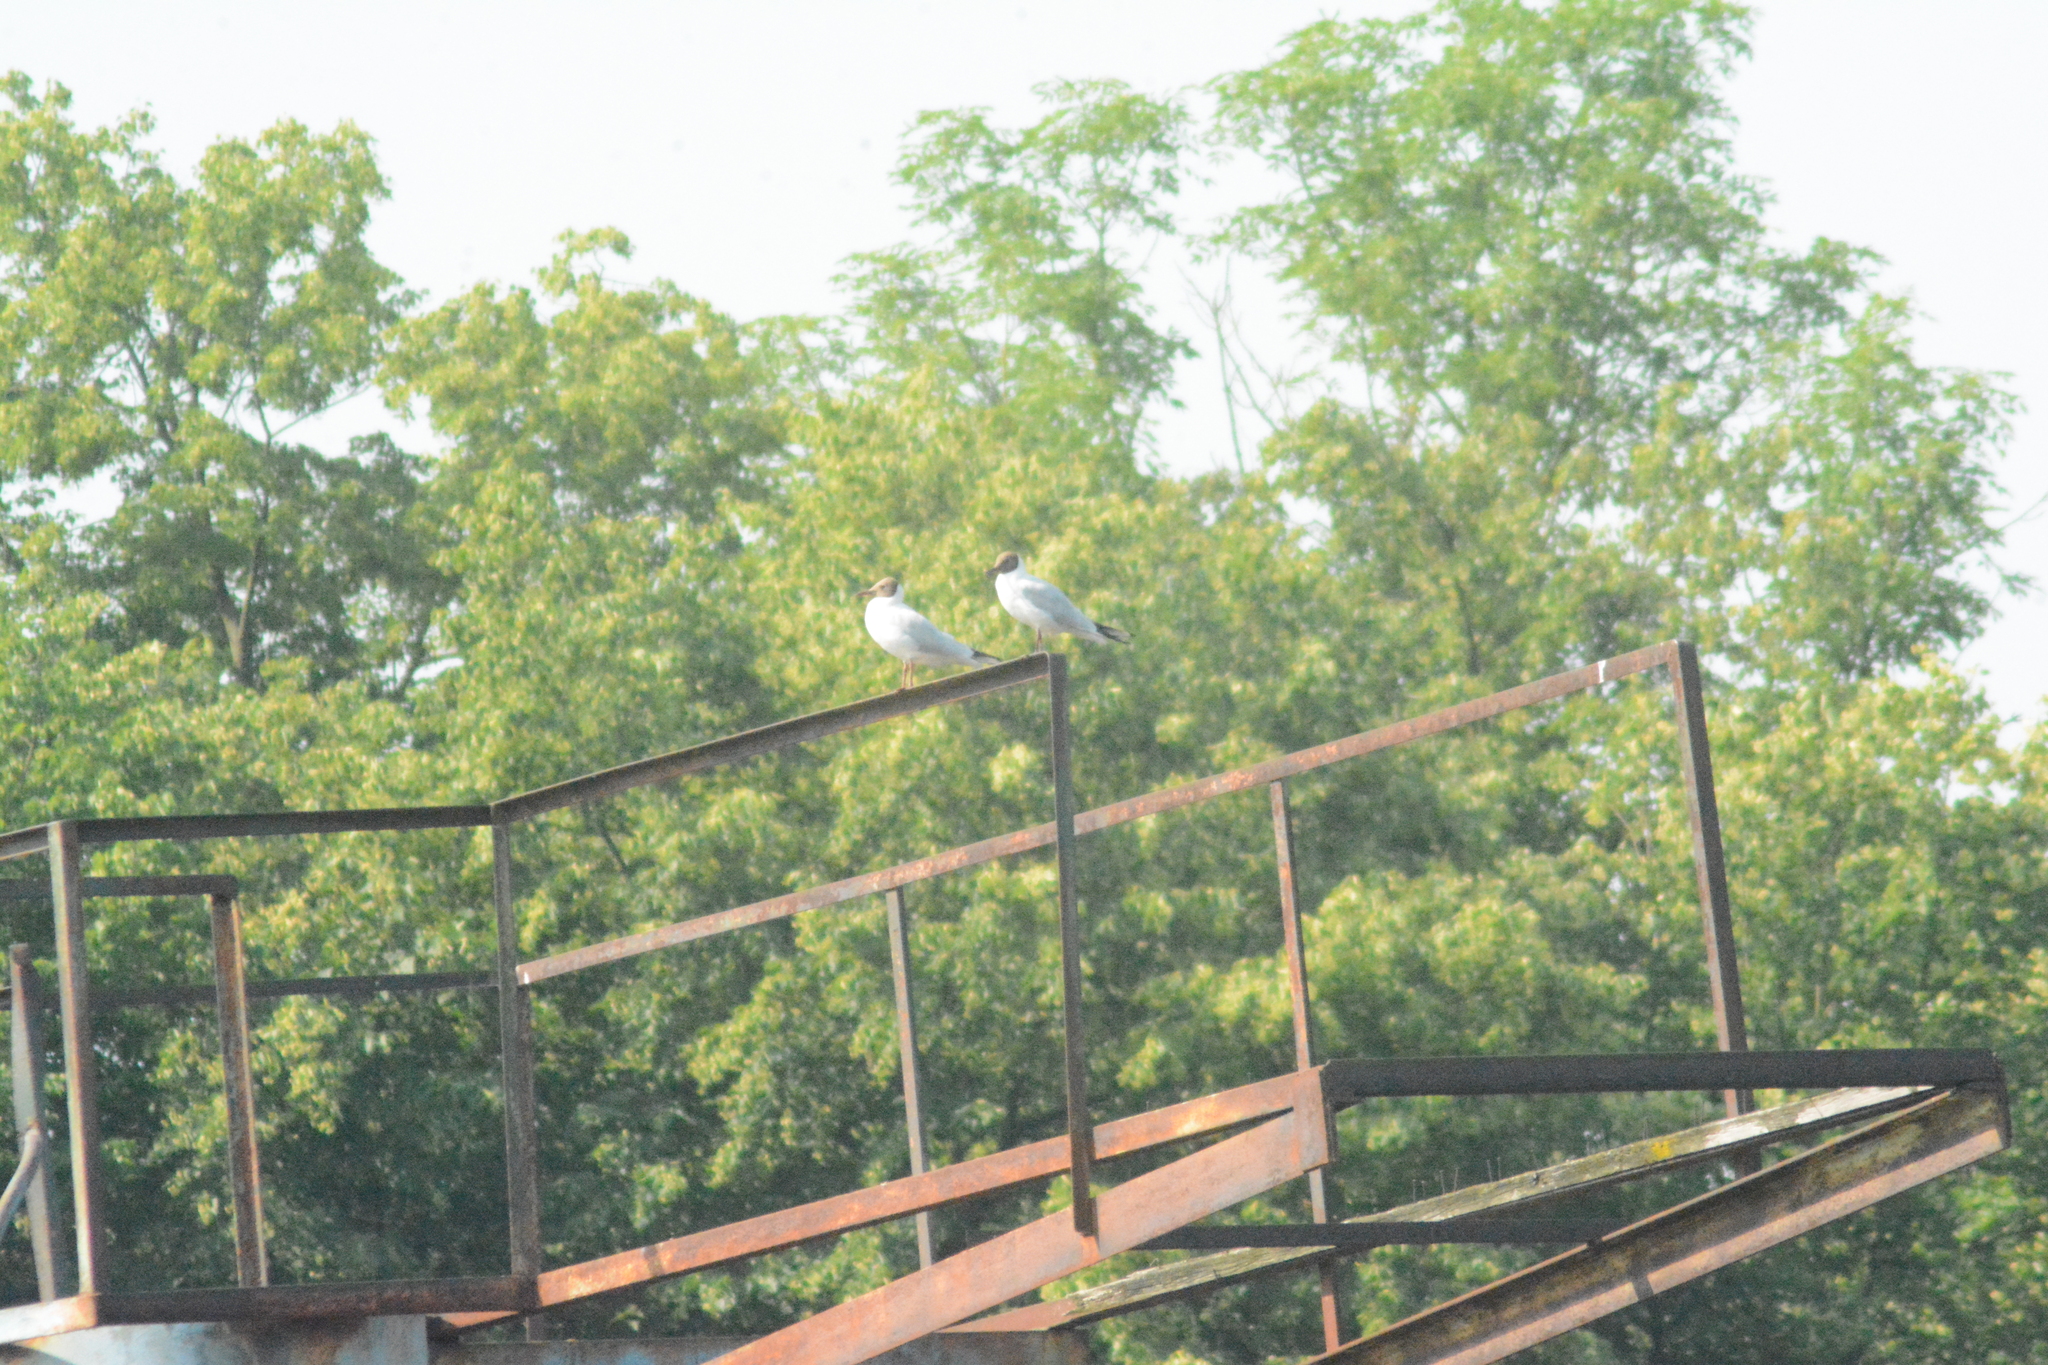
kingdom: Animalia
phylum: Chordata
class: Aves
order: Charadriiformes
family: Laridae
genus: Chroicocephalus
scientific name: Chroicocephalus ridibundus
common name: Black-headed gull
